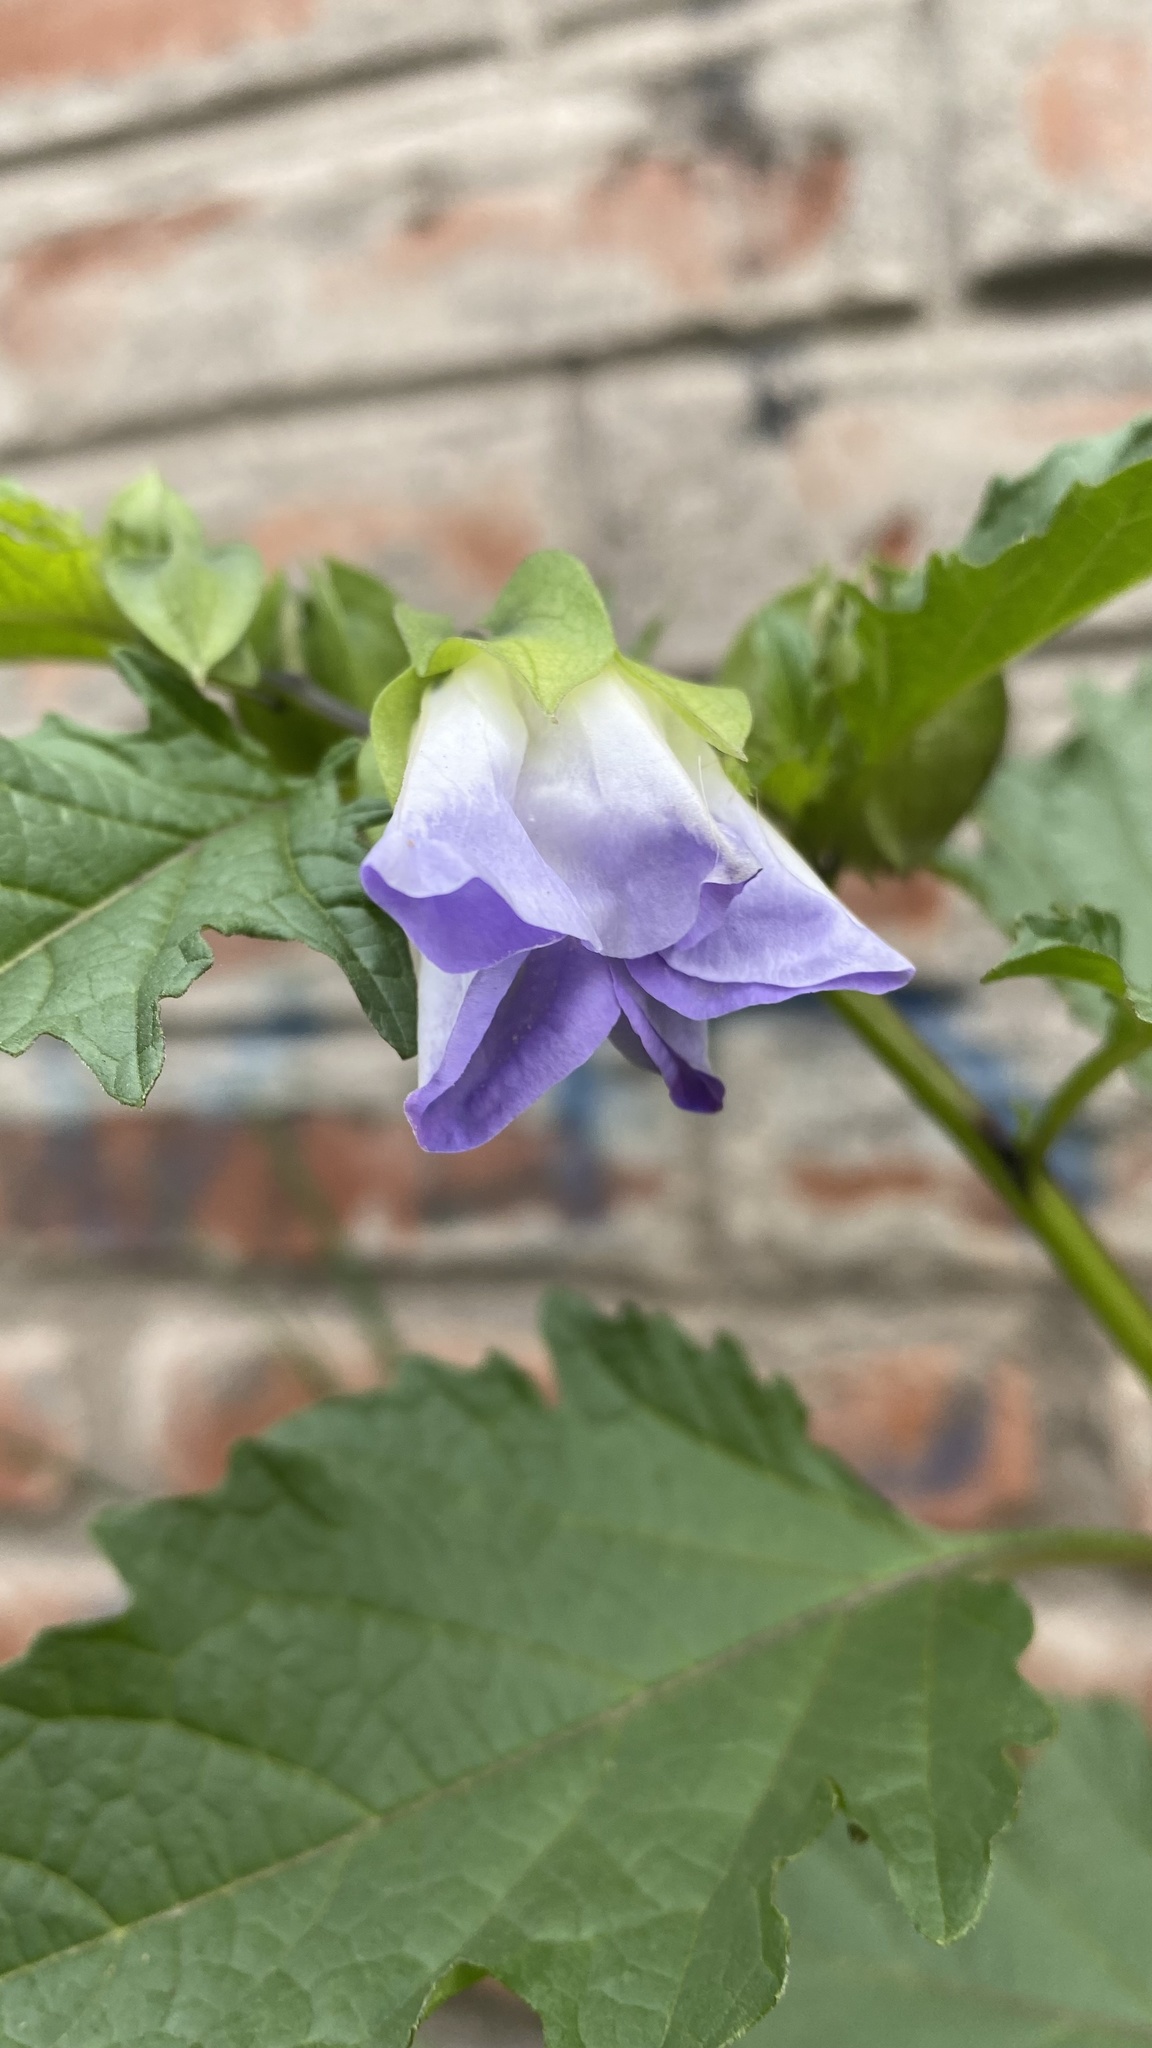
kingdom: Plantae
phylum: Tracheophyta
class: Magnoliopsida
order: Solanales
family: Solanaceae
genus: Nicandra
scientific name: Nicandra physalodes
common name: Apple-of-peru
